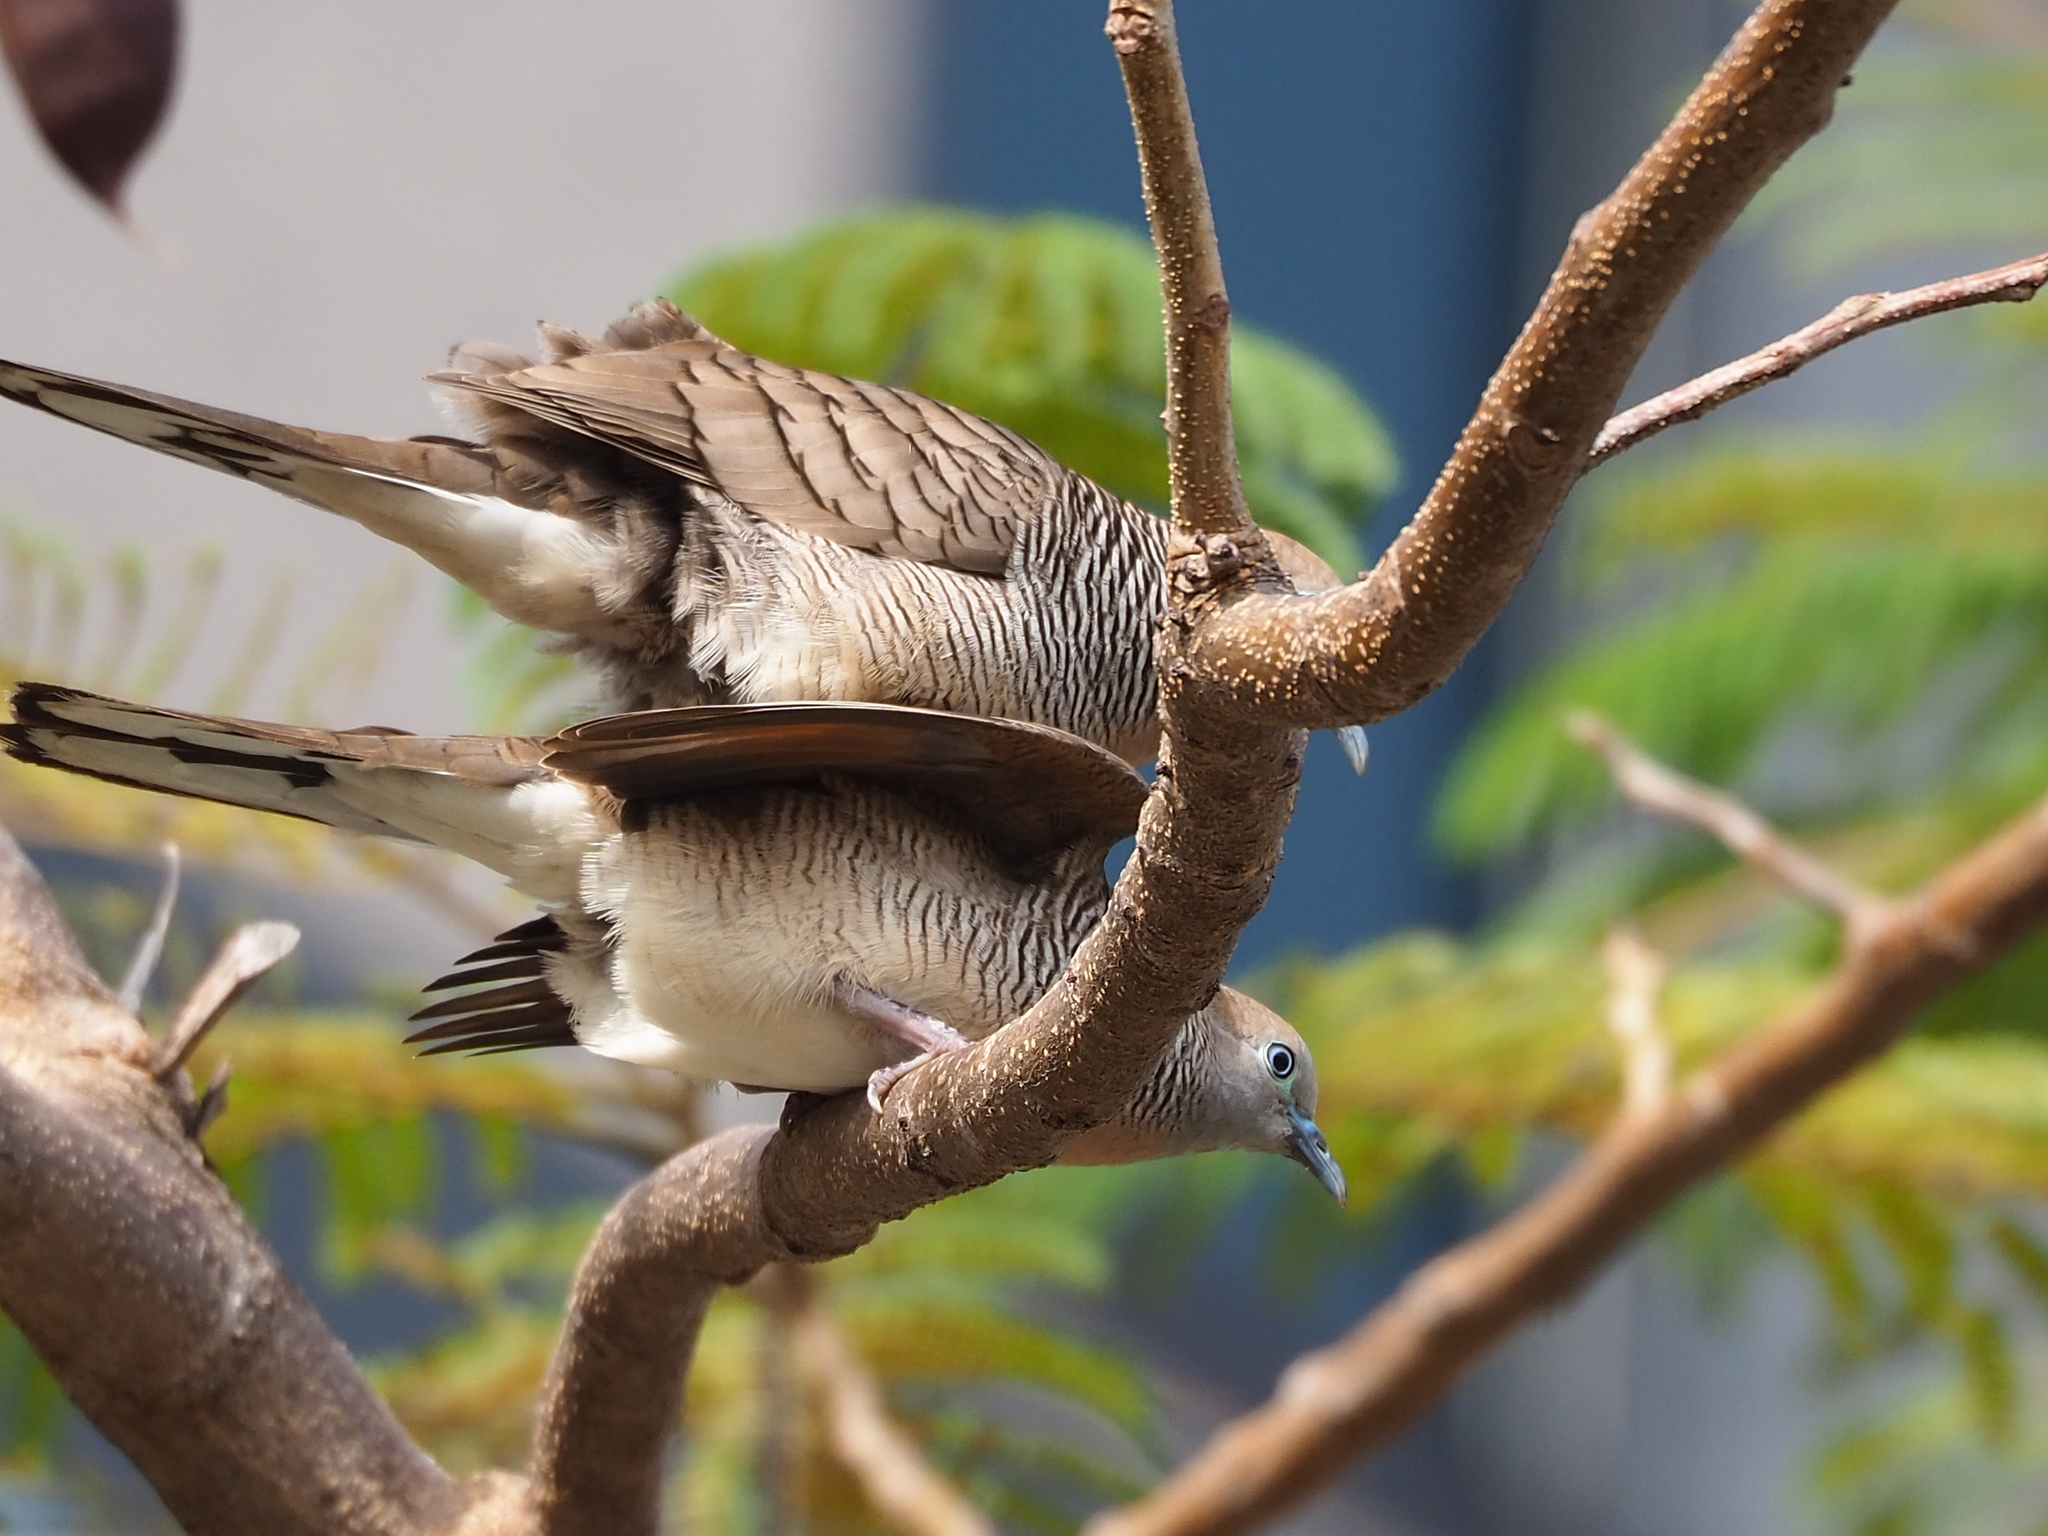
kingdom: Animalia
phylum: Chordata
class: Aves
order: Columbiformes
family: Columbidae
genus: Geopelia
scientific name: Geopelia striata
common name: Zebra dove
